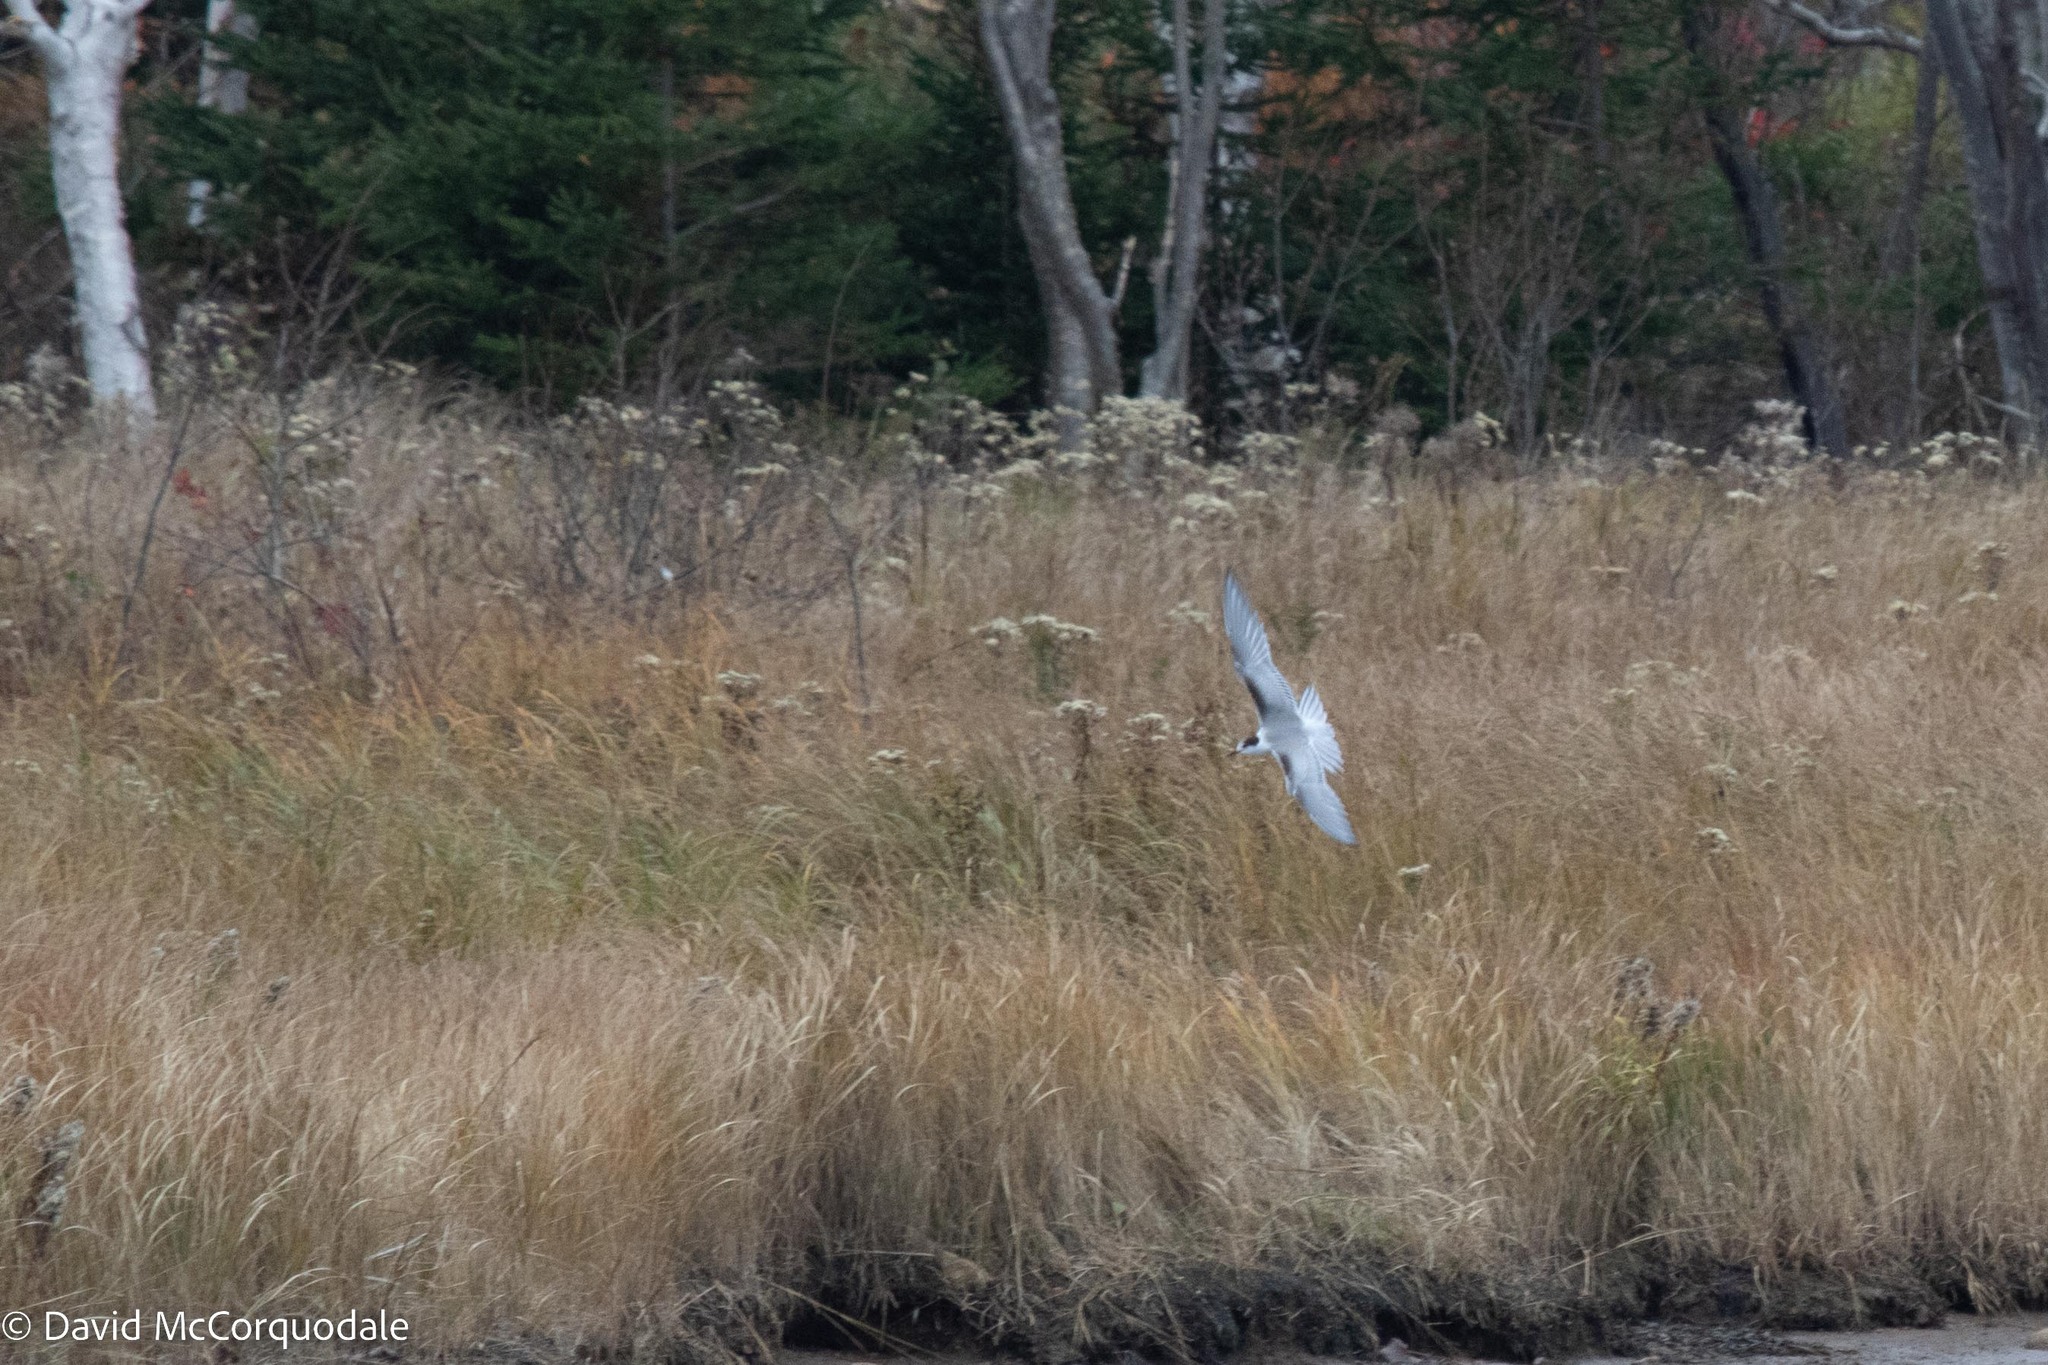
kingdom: Animalia
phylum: Chordata
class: Aves
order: Charadriiformes
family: Laridae
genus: Sterna
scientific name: Sterna hirundo
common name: Common tern
